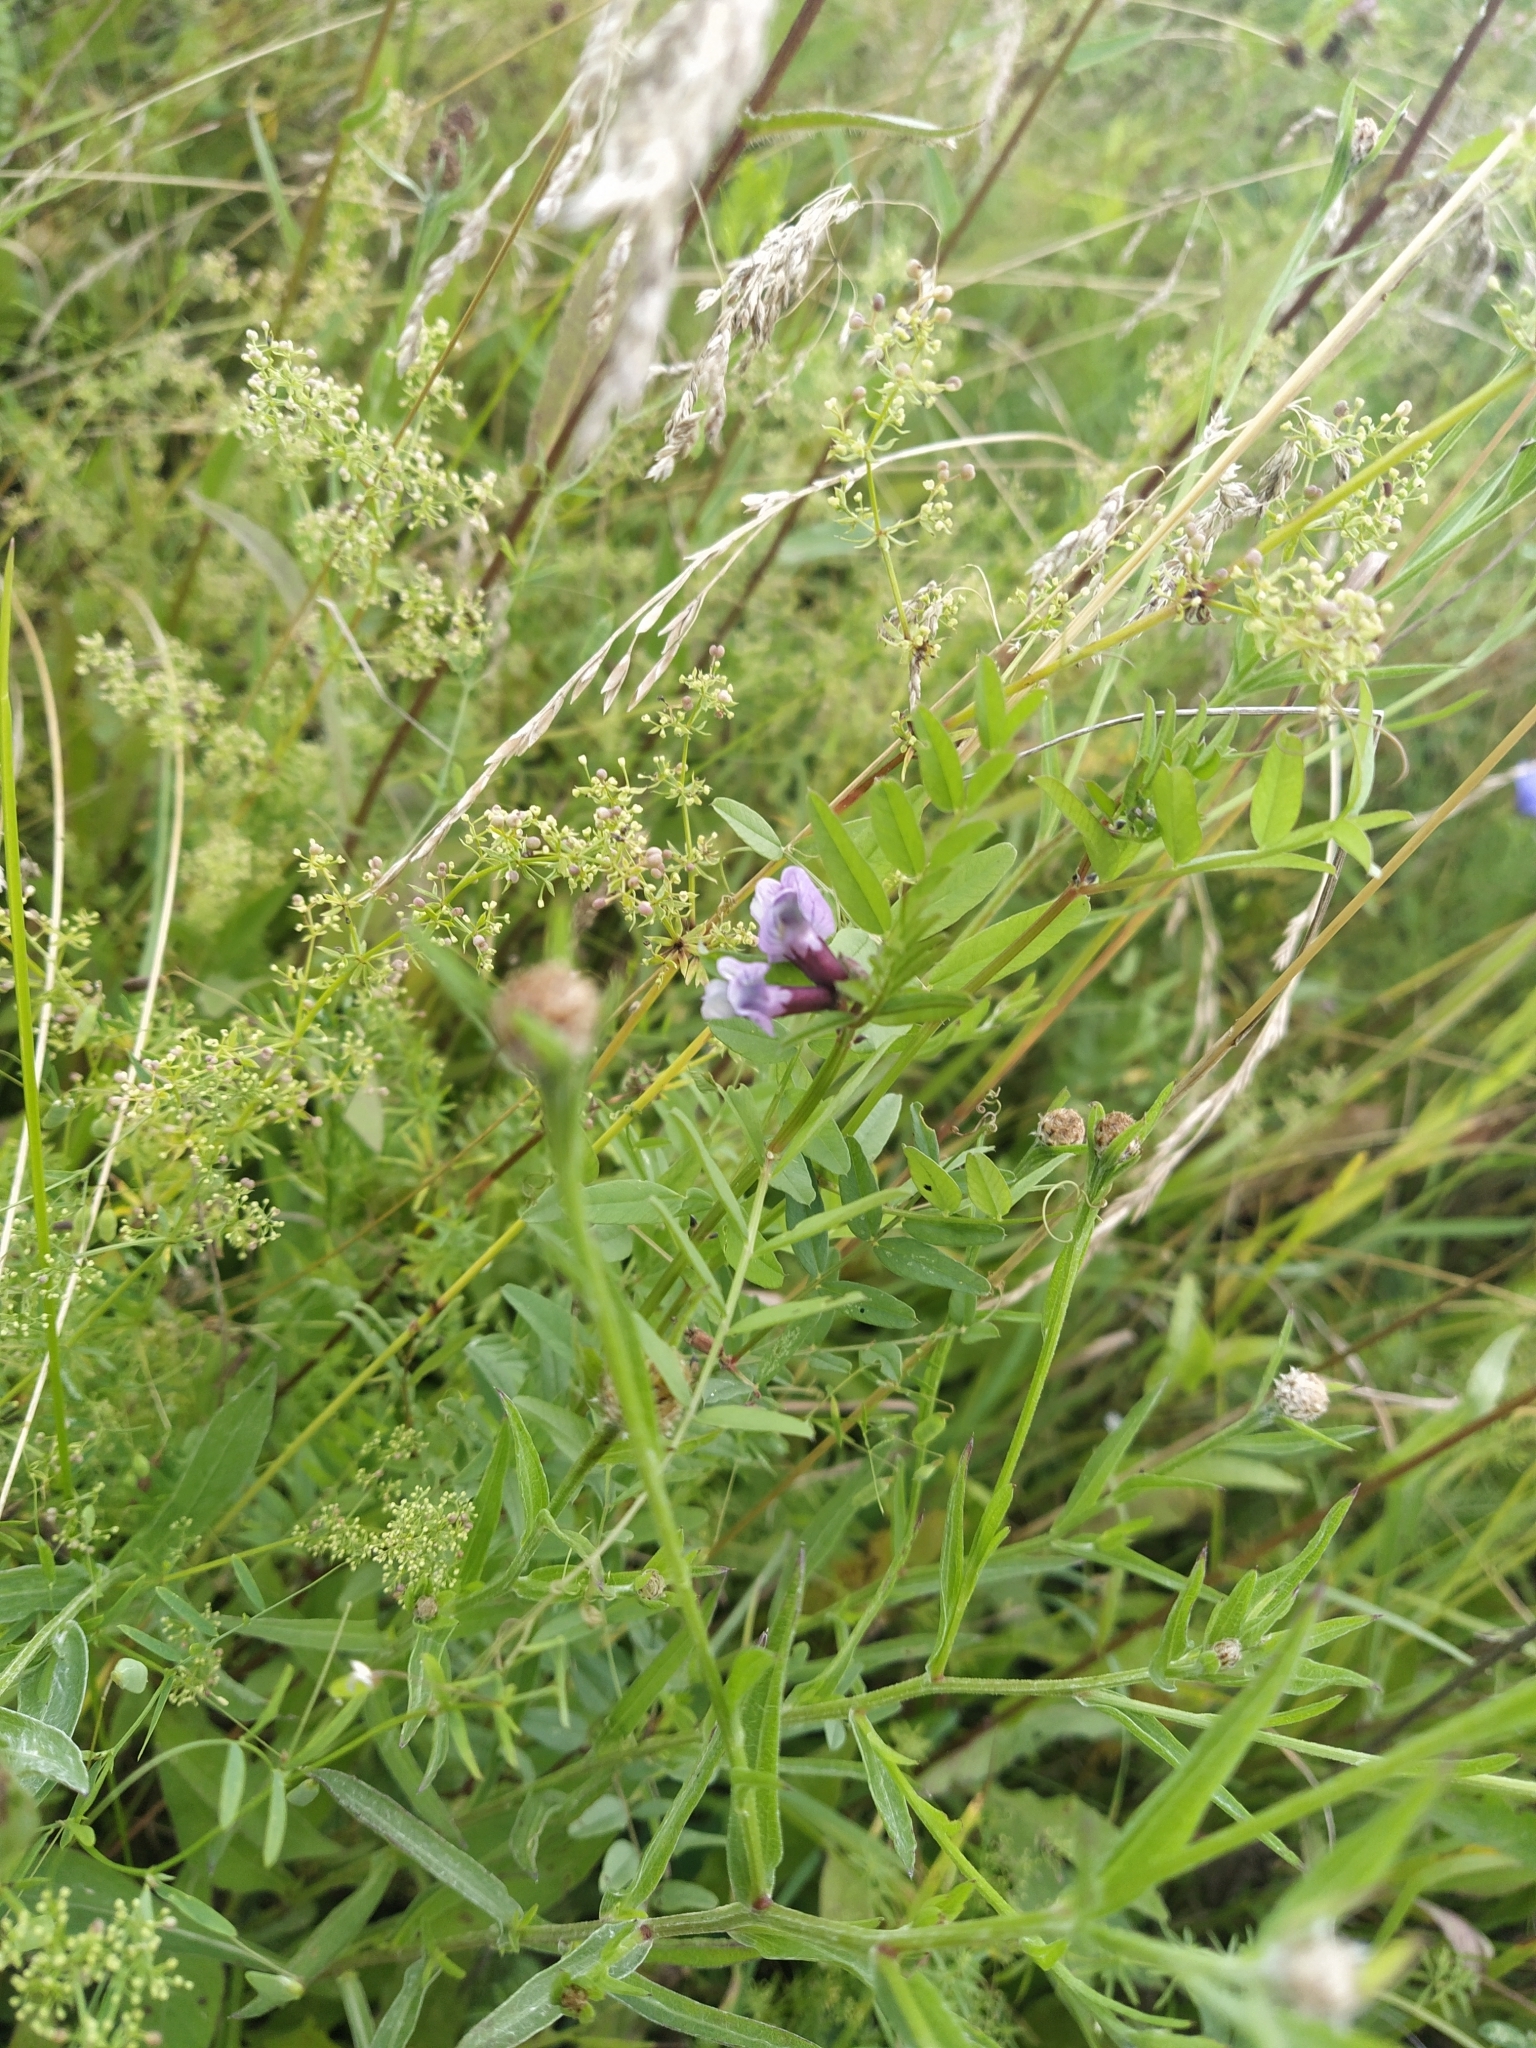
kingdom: Plantae
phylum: Tracheophyta
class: Magnoliopsida
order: Fabales
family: Fabaceae
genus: Vicia
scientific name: Vicia sepium
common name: Bush vetch
